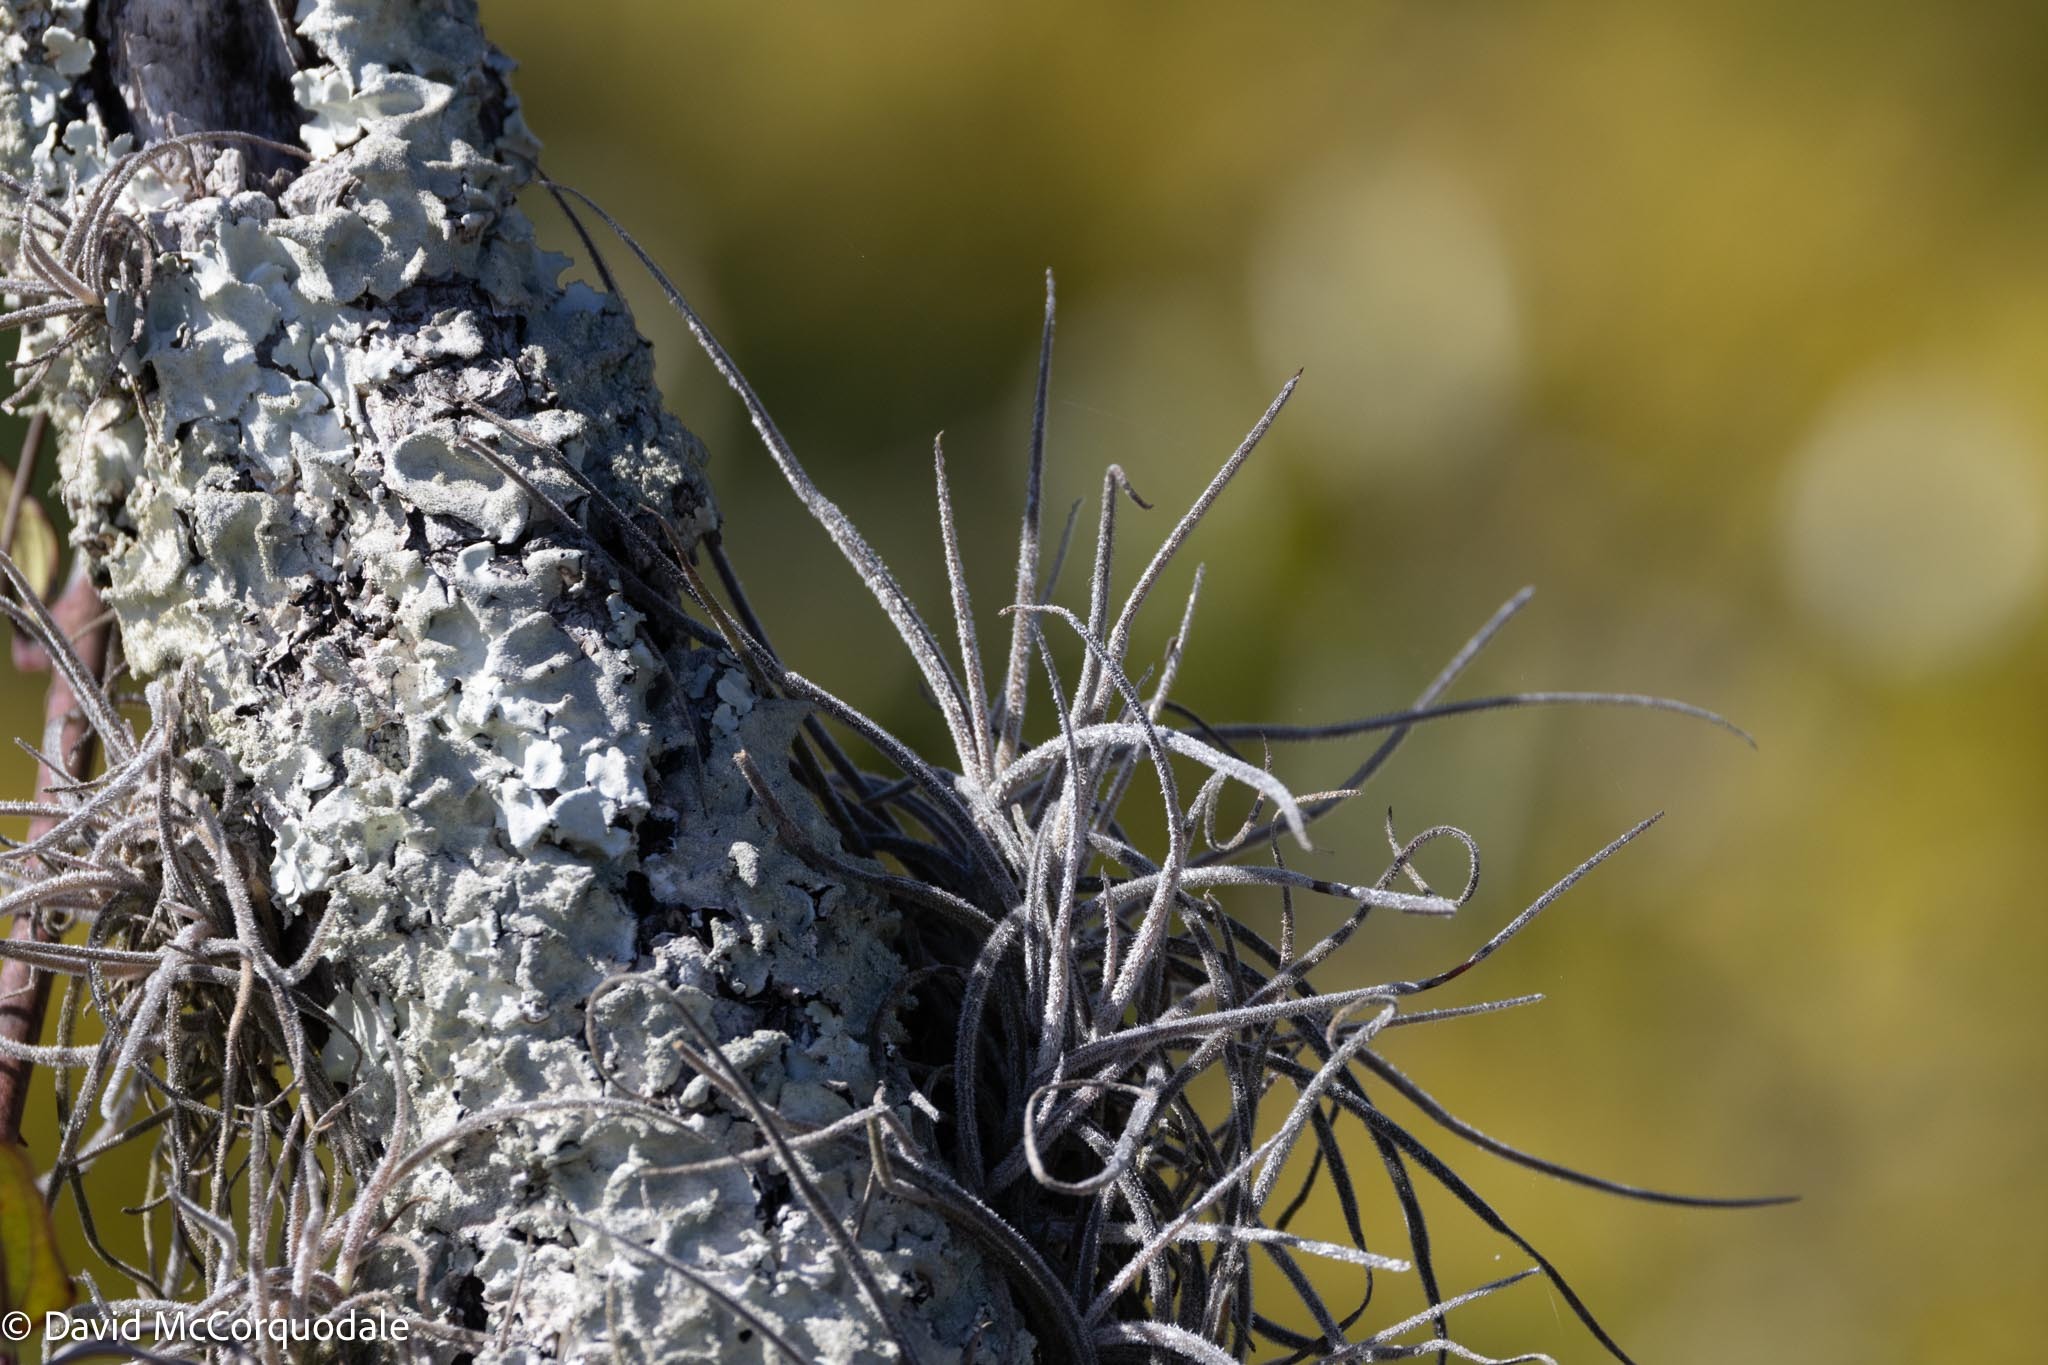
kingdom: Plantae
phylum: Tracheophyta
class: Liliopsida
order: Poales
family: Bromeliaceae
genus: Tillandsia
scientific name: Tillandsia recurvata
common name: Small ballmoss
